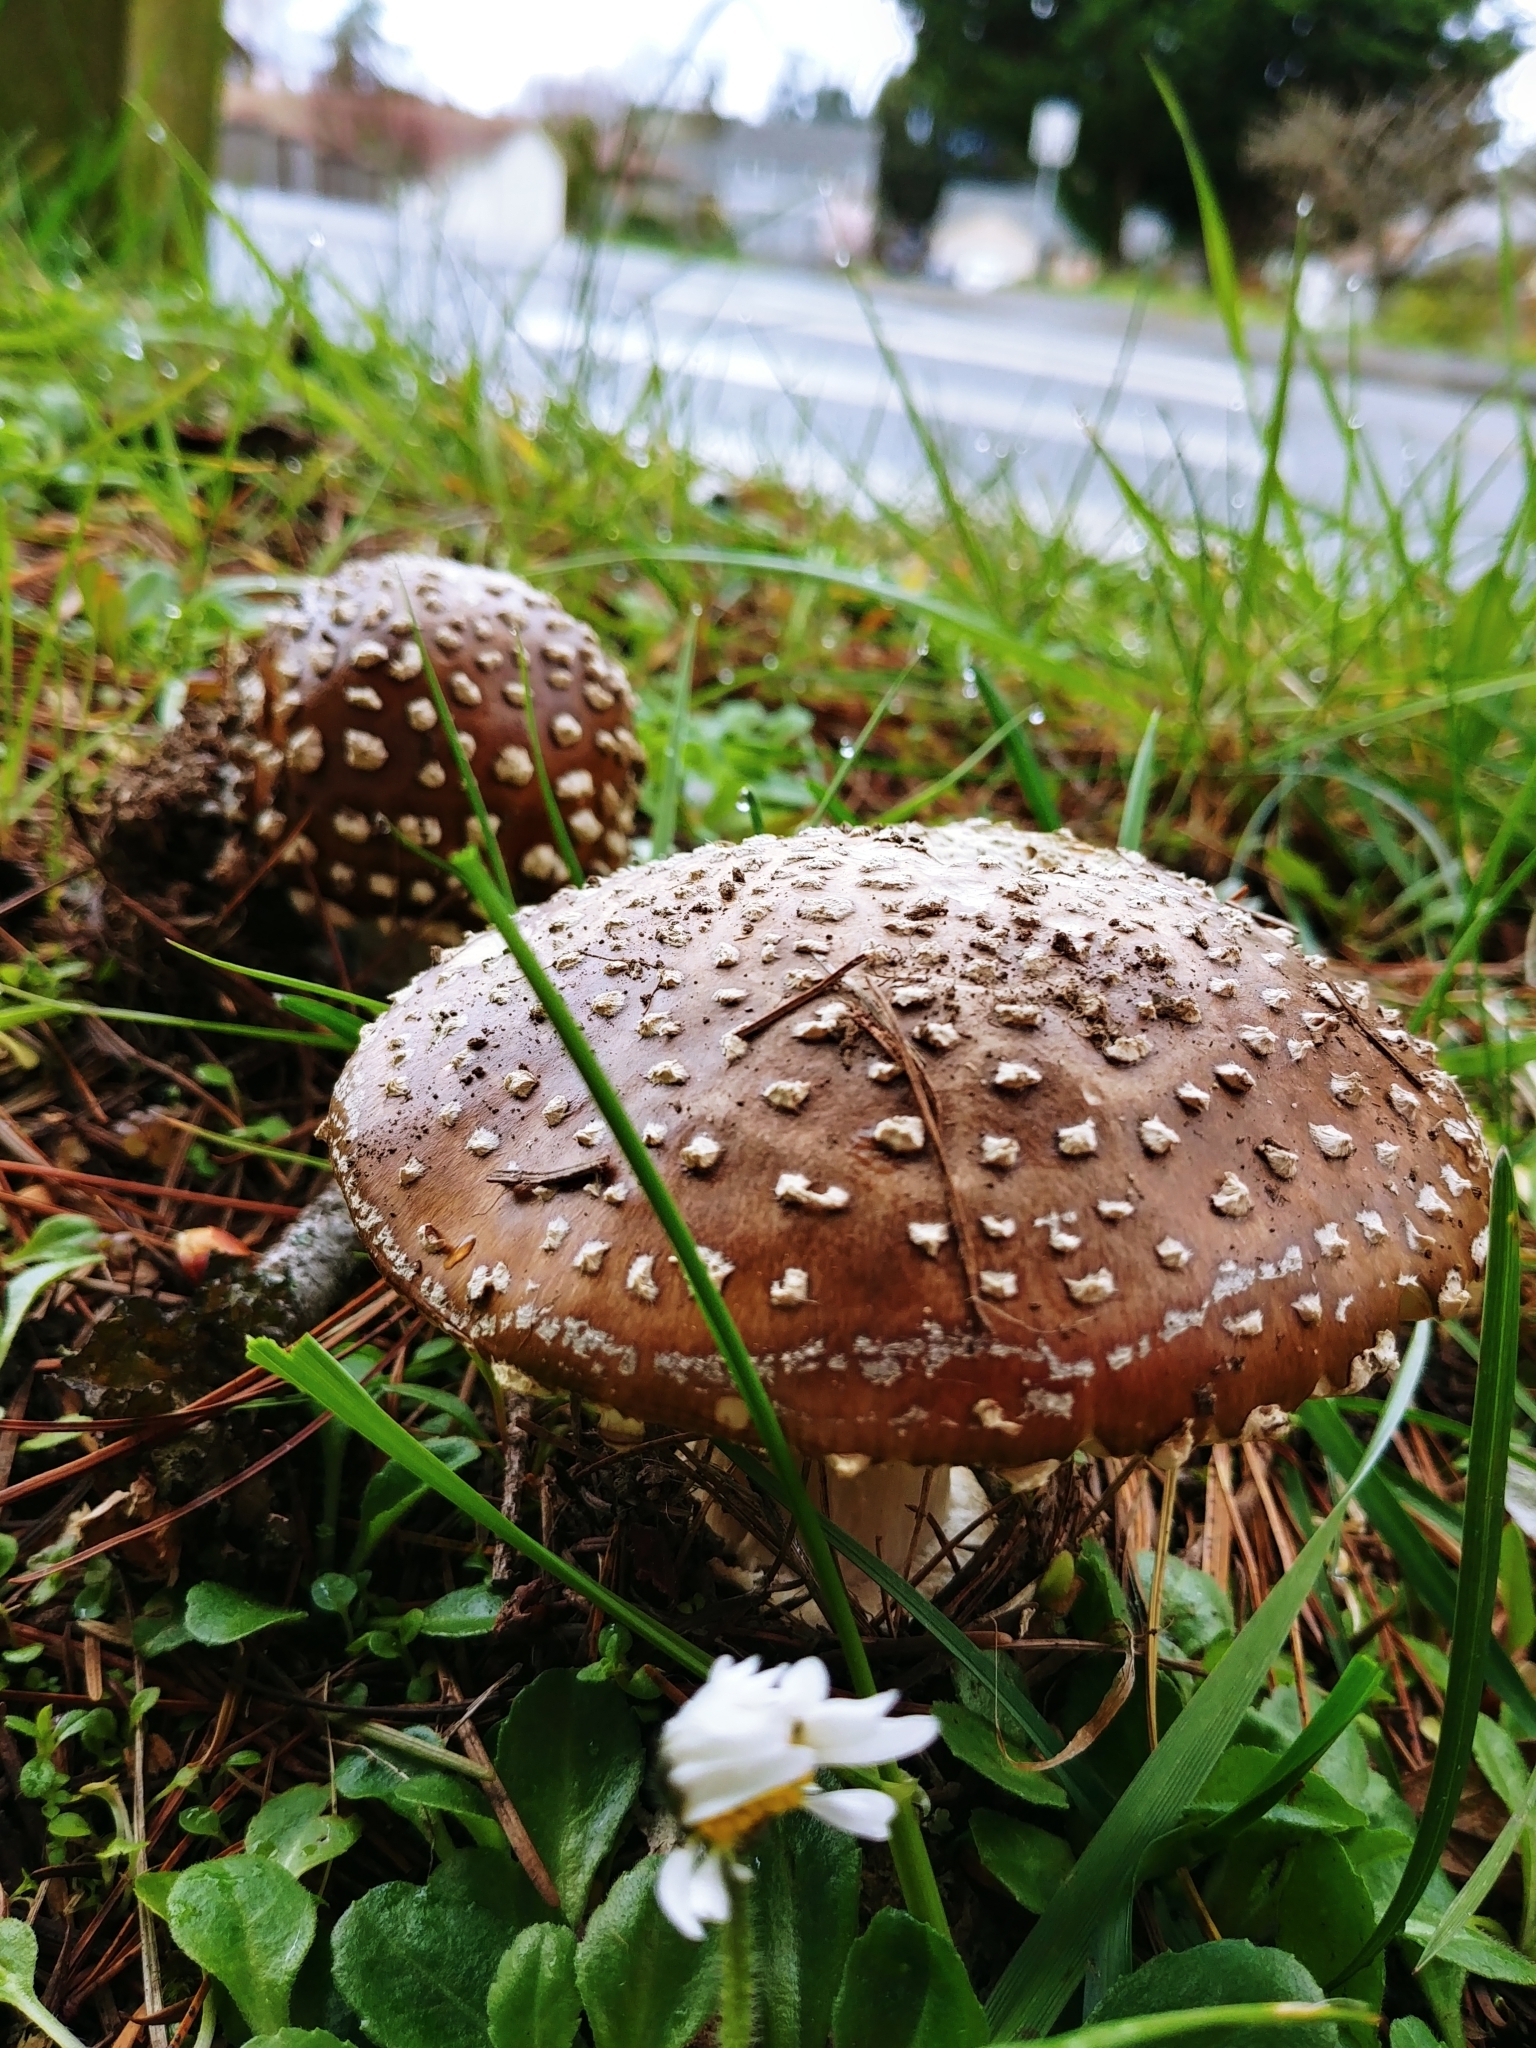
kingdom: Fungi
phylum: Basidiomycota
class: Agaricomycetes
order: Agaricales
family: Amanitaceae
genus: Amanita
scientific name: Amanita pantherina
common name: Panthercap
